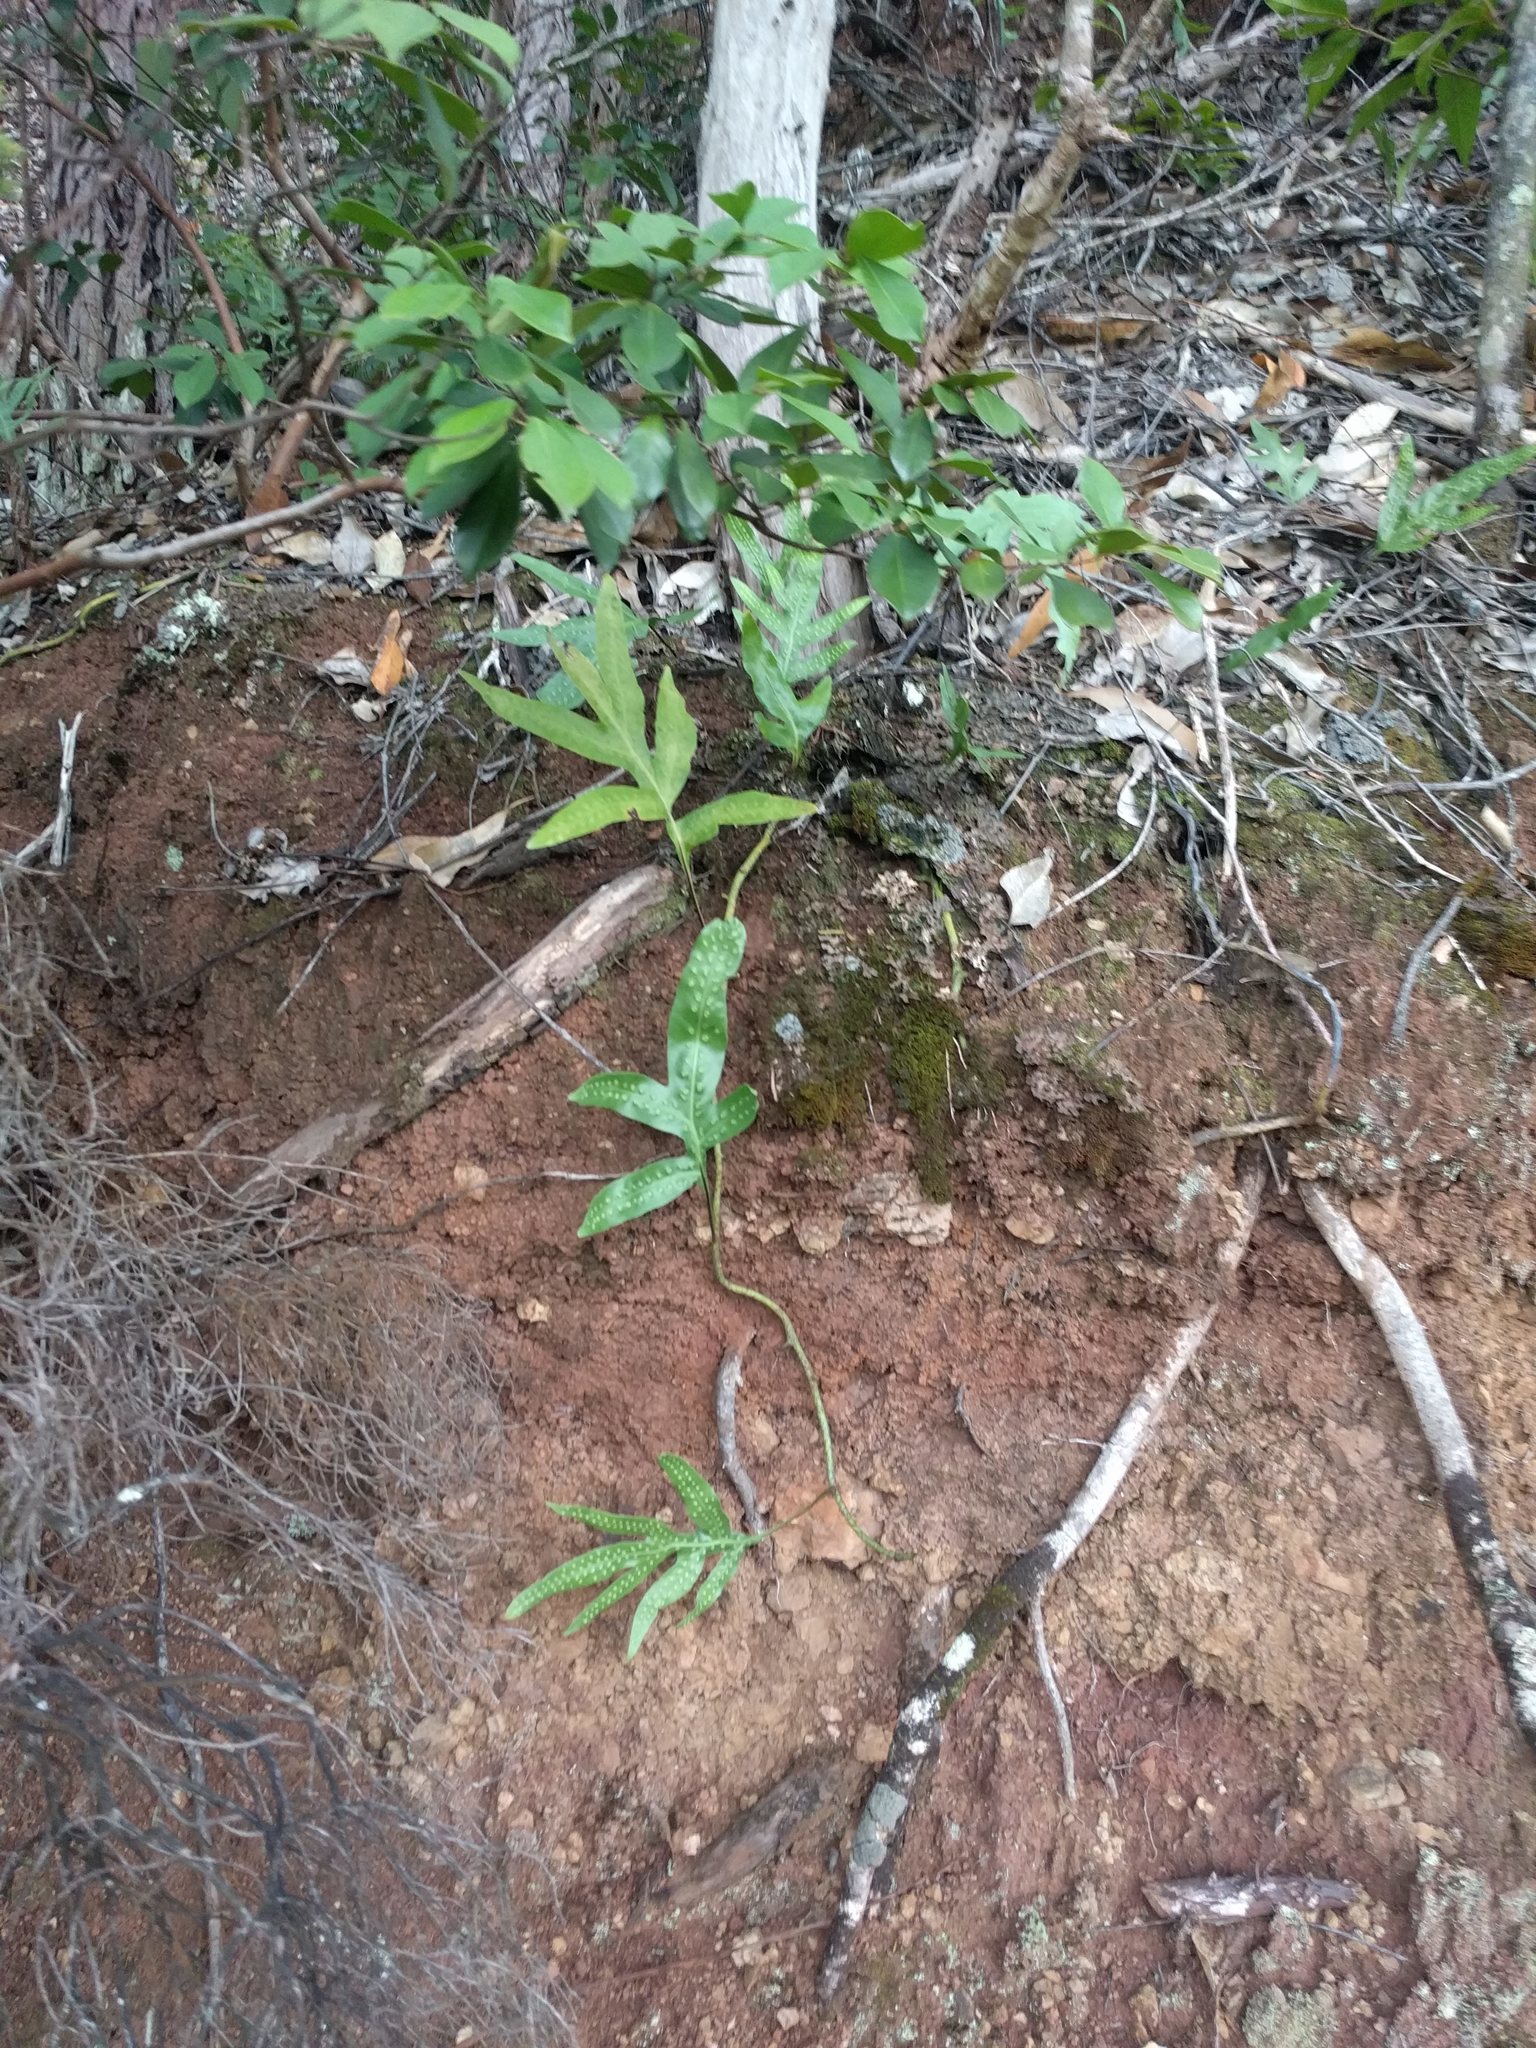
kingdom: Plantae
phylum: Tracheophyta
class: Polypodiopsida
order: Polypodiales
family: Polypodiaceae
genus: Microsorum
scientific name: Microsorum grossum
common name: Musk fern
